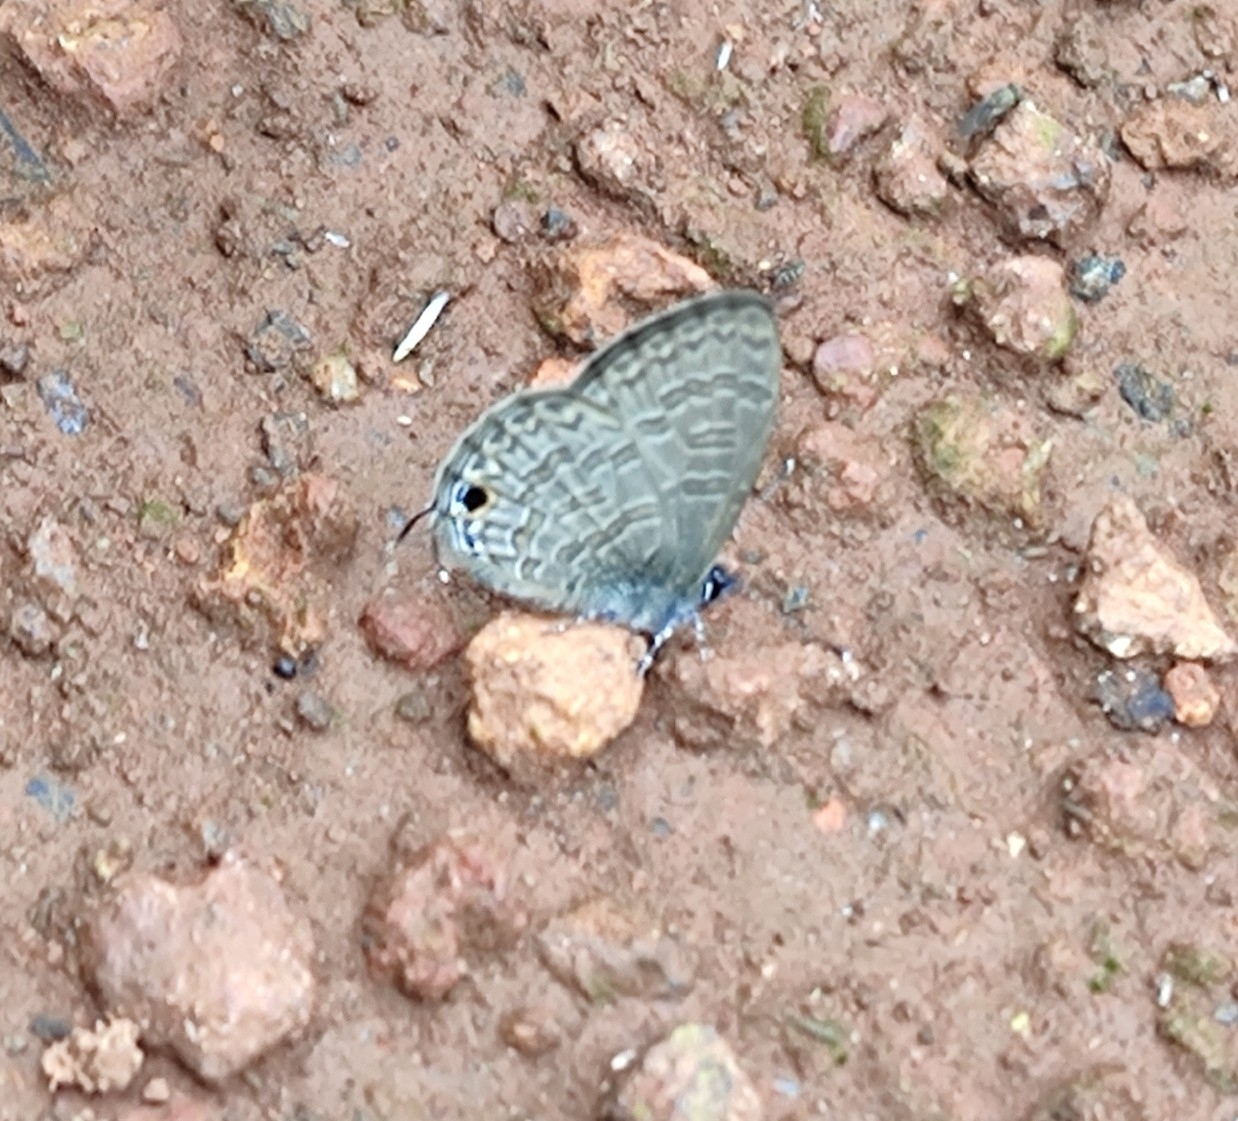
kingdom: Animalia
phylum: Arthropoda
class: Insecta
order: Lepidoptera
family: Lycaenidae
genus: Prosotas
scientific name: Prosotas nora
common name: Common line blue
